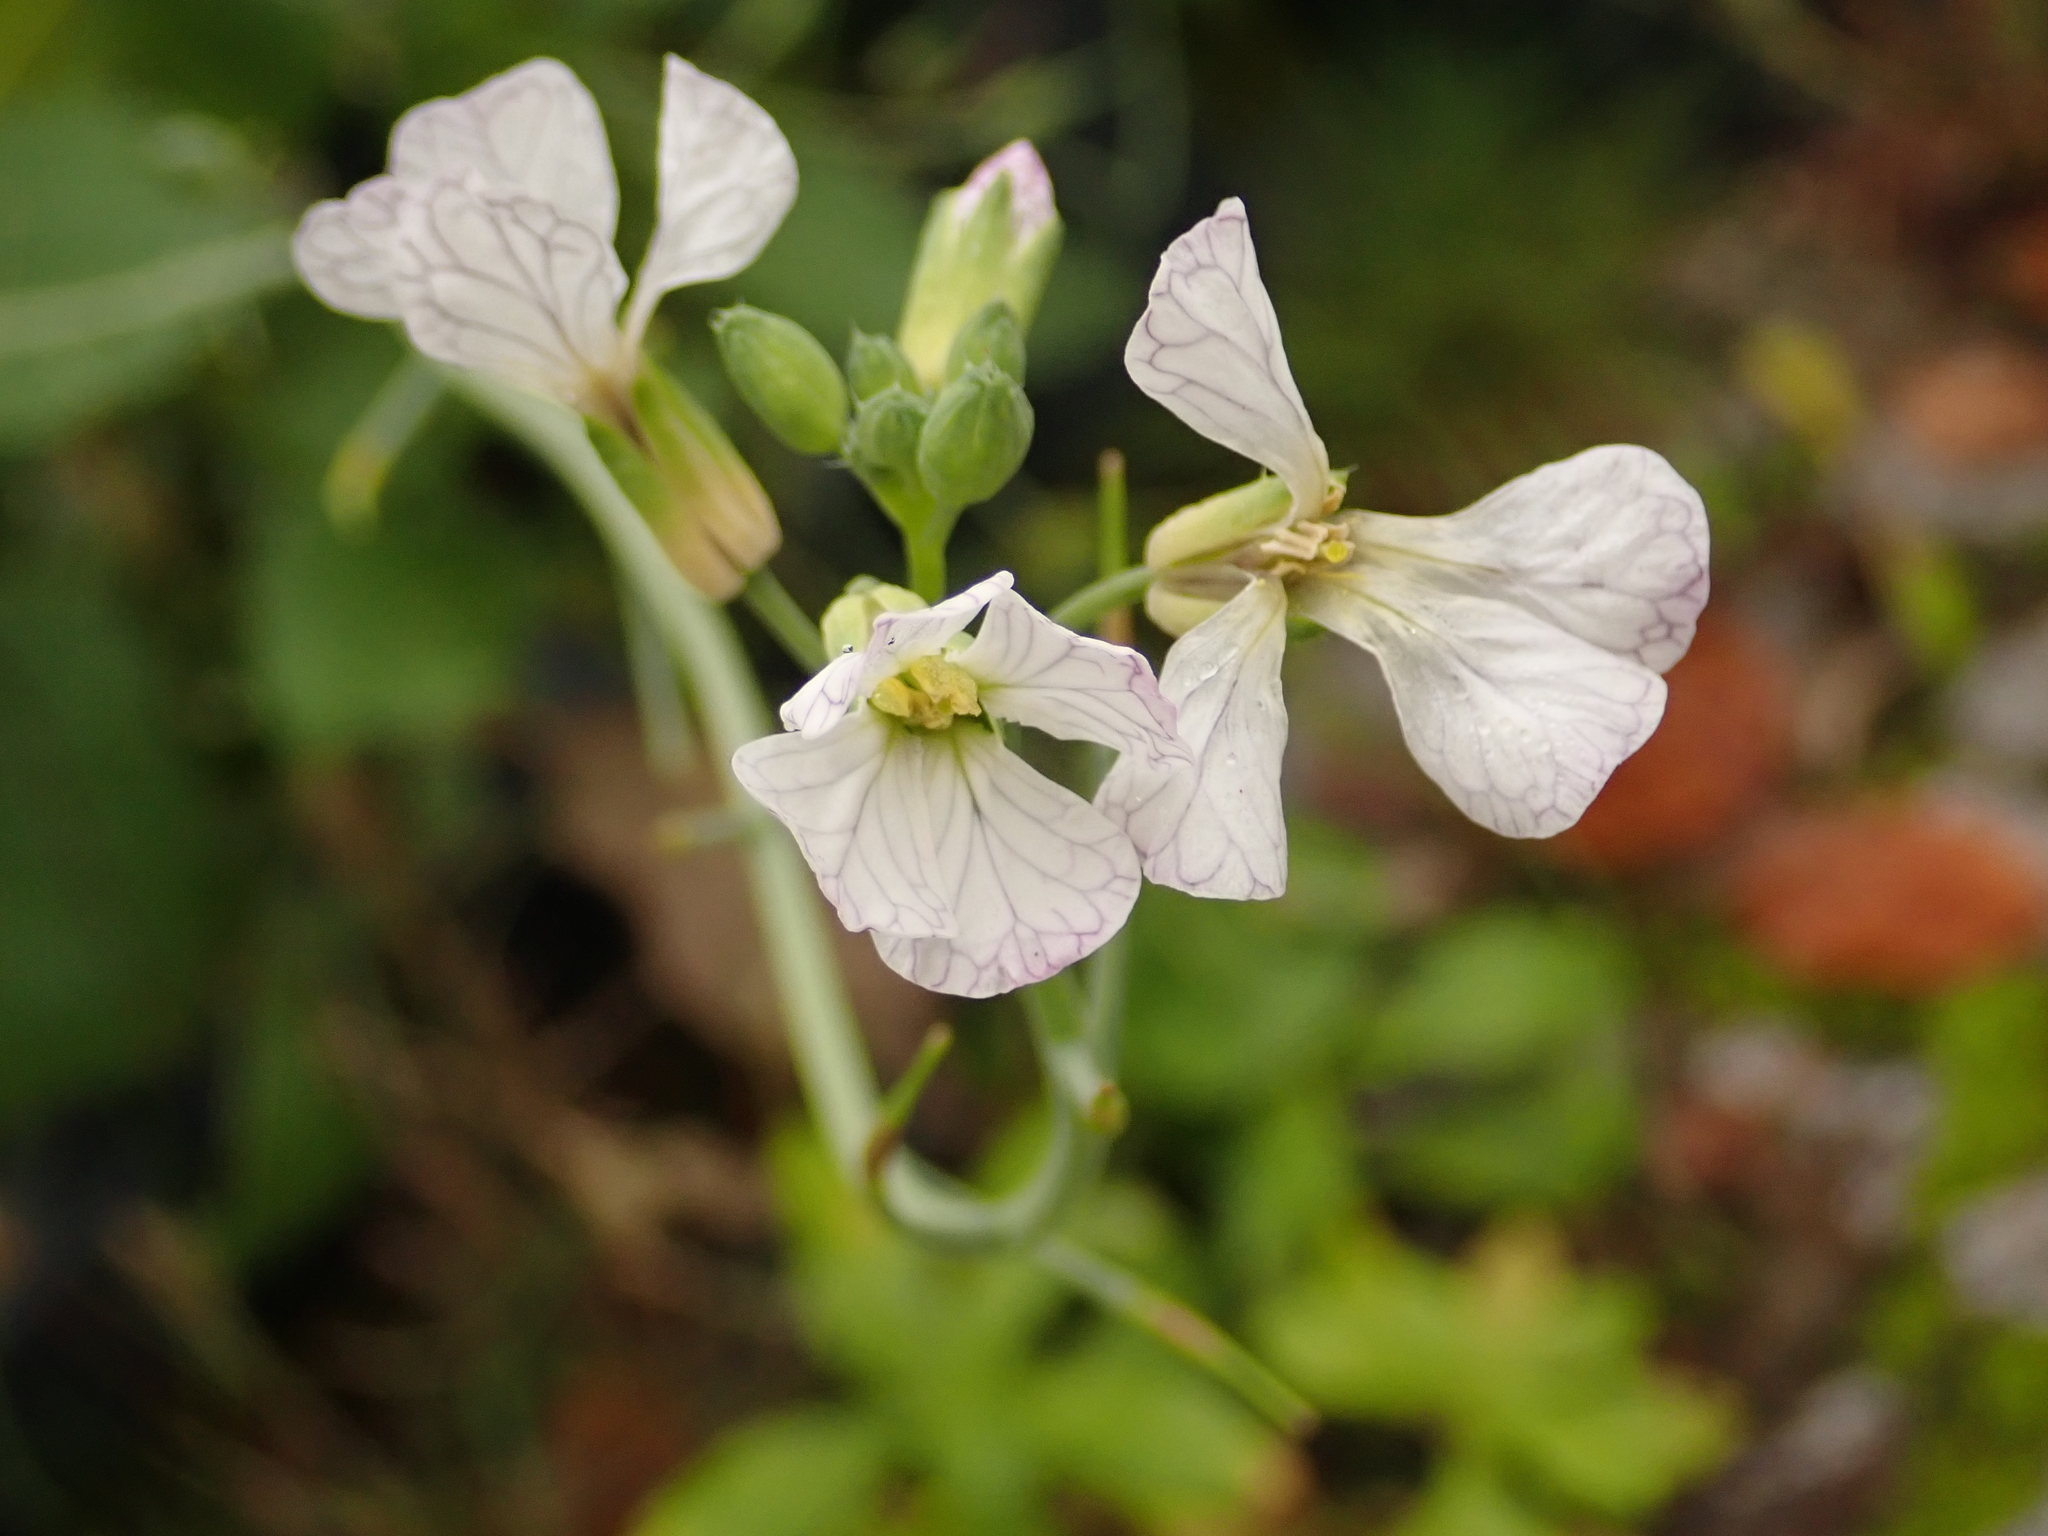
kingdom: Plantae
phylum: Tracheophyta
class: Magnoliopsida
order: Brassicales
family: Brassicaceae
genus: Raphanus
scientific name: Raphanus raphanistrum
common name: Wild radish
